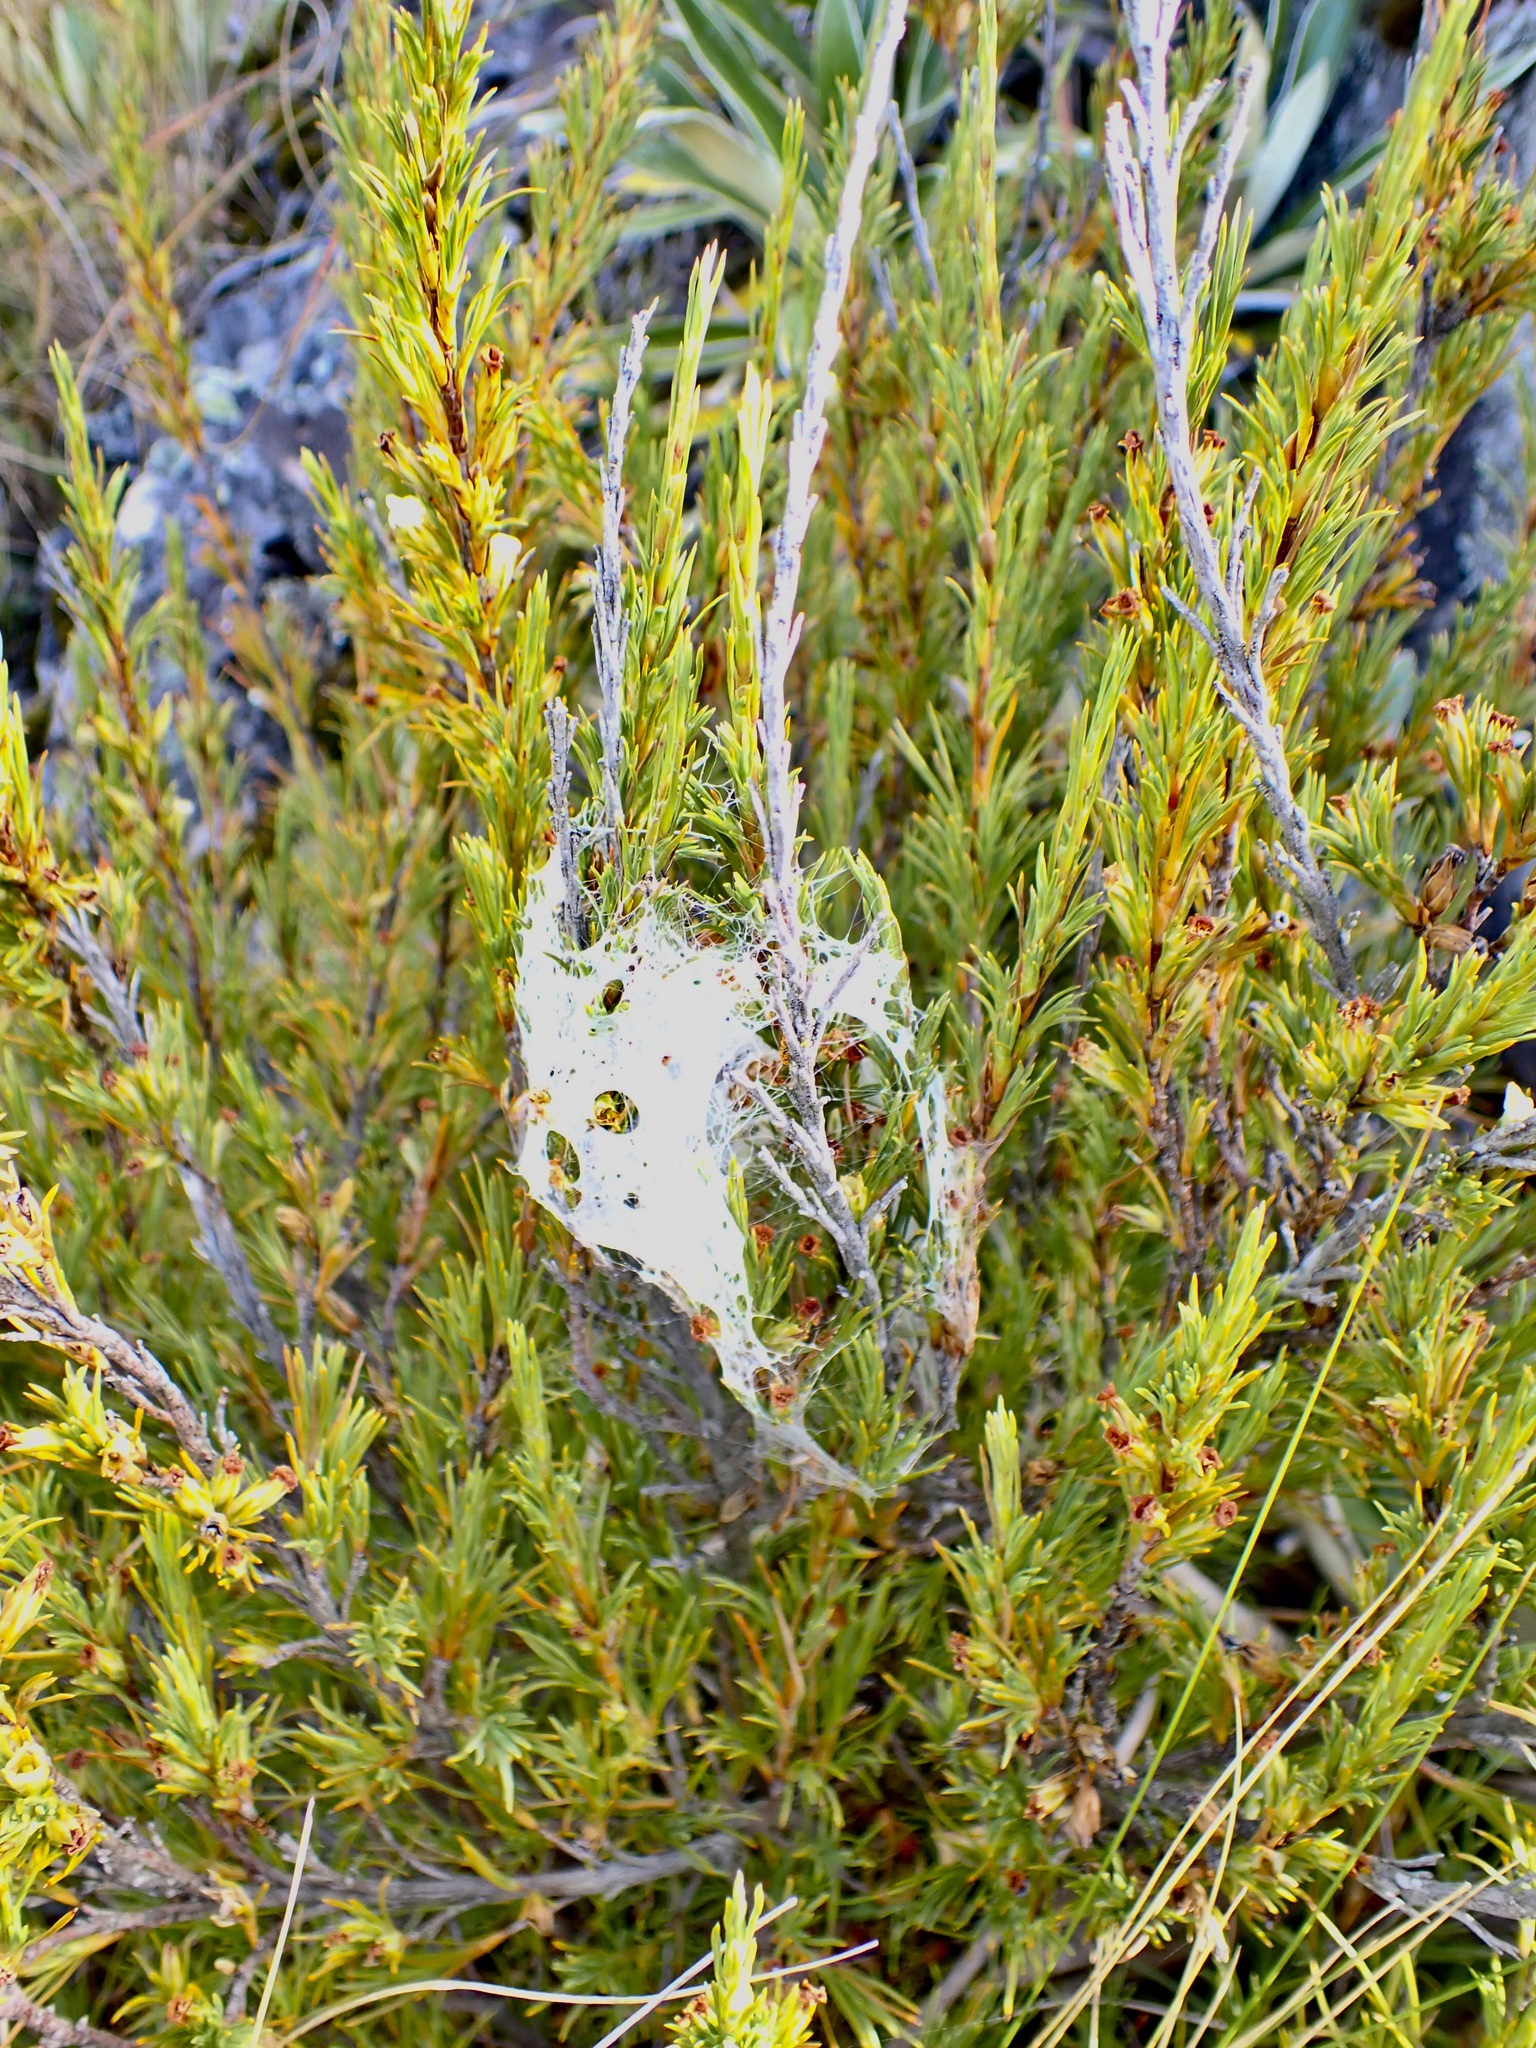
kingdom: Animalia
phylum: Arthropoda
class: Arachnida
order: Araneae
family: Pisauridae
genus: Dolomedes
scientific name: Dolomedes minor
